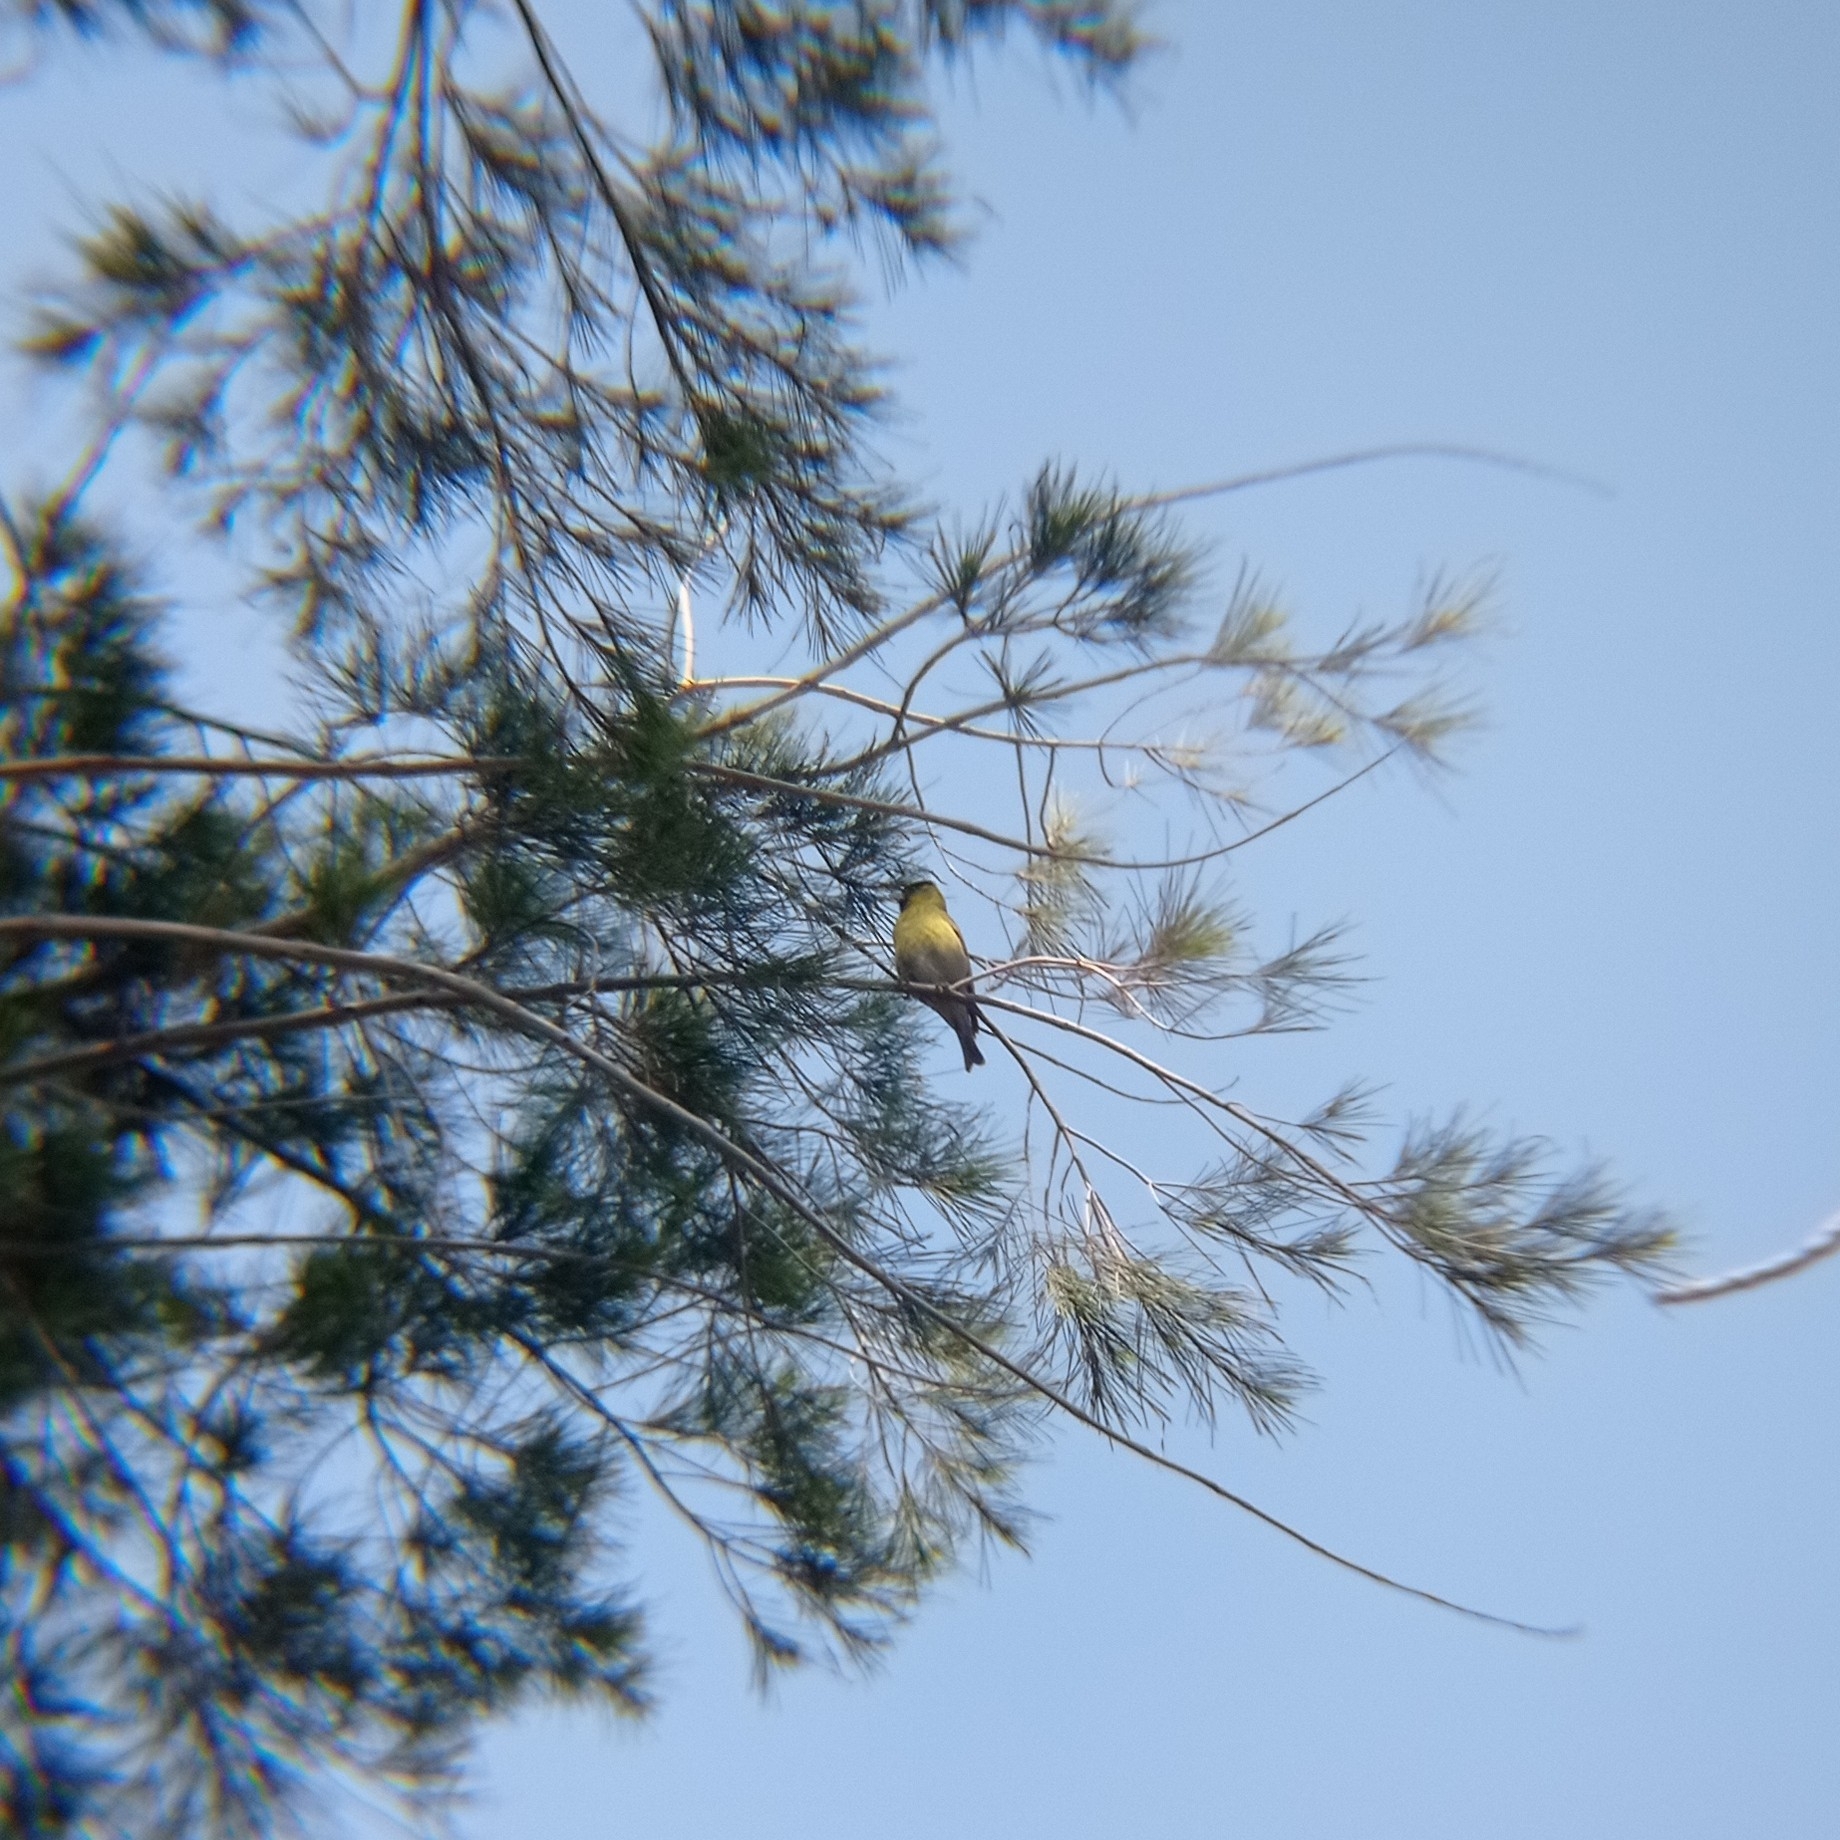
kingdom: Animalia
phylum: Chordata
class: Aves
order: Passeriformes
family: Fringillidae
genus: Spinus
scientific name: Spinus barbatus
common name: Black-chinned siskin
